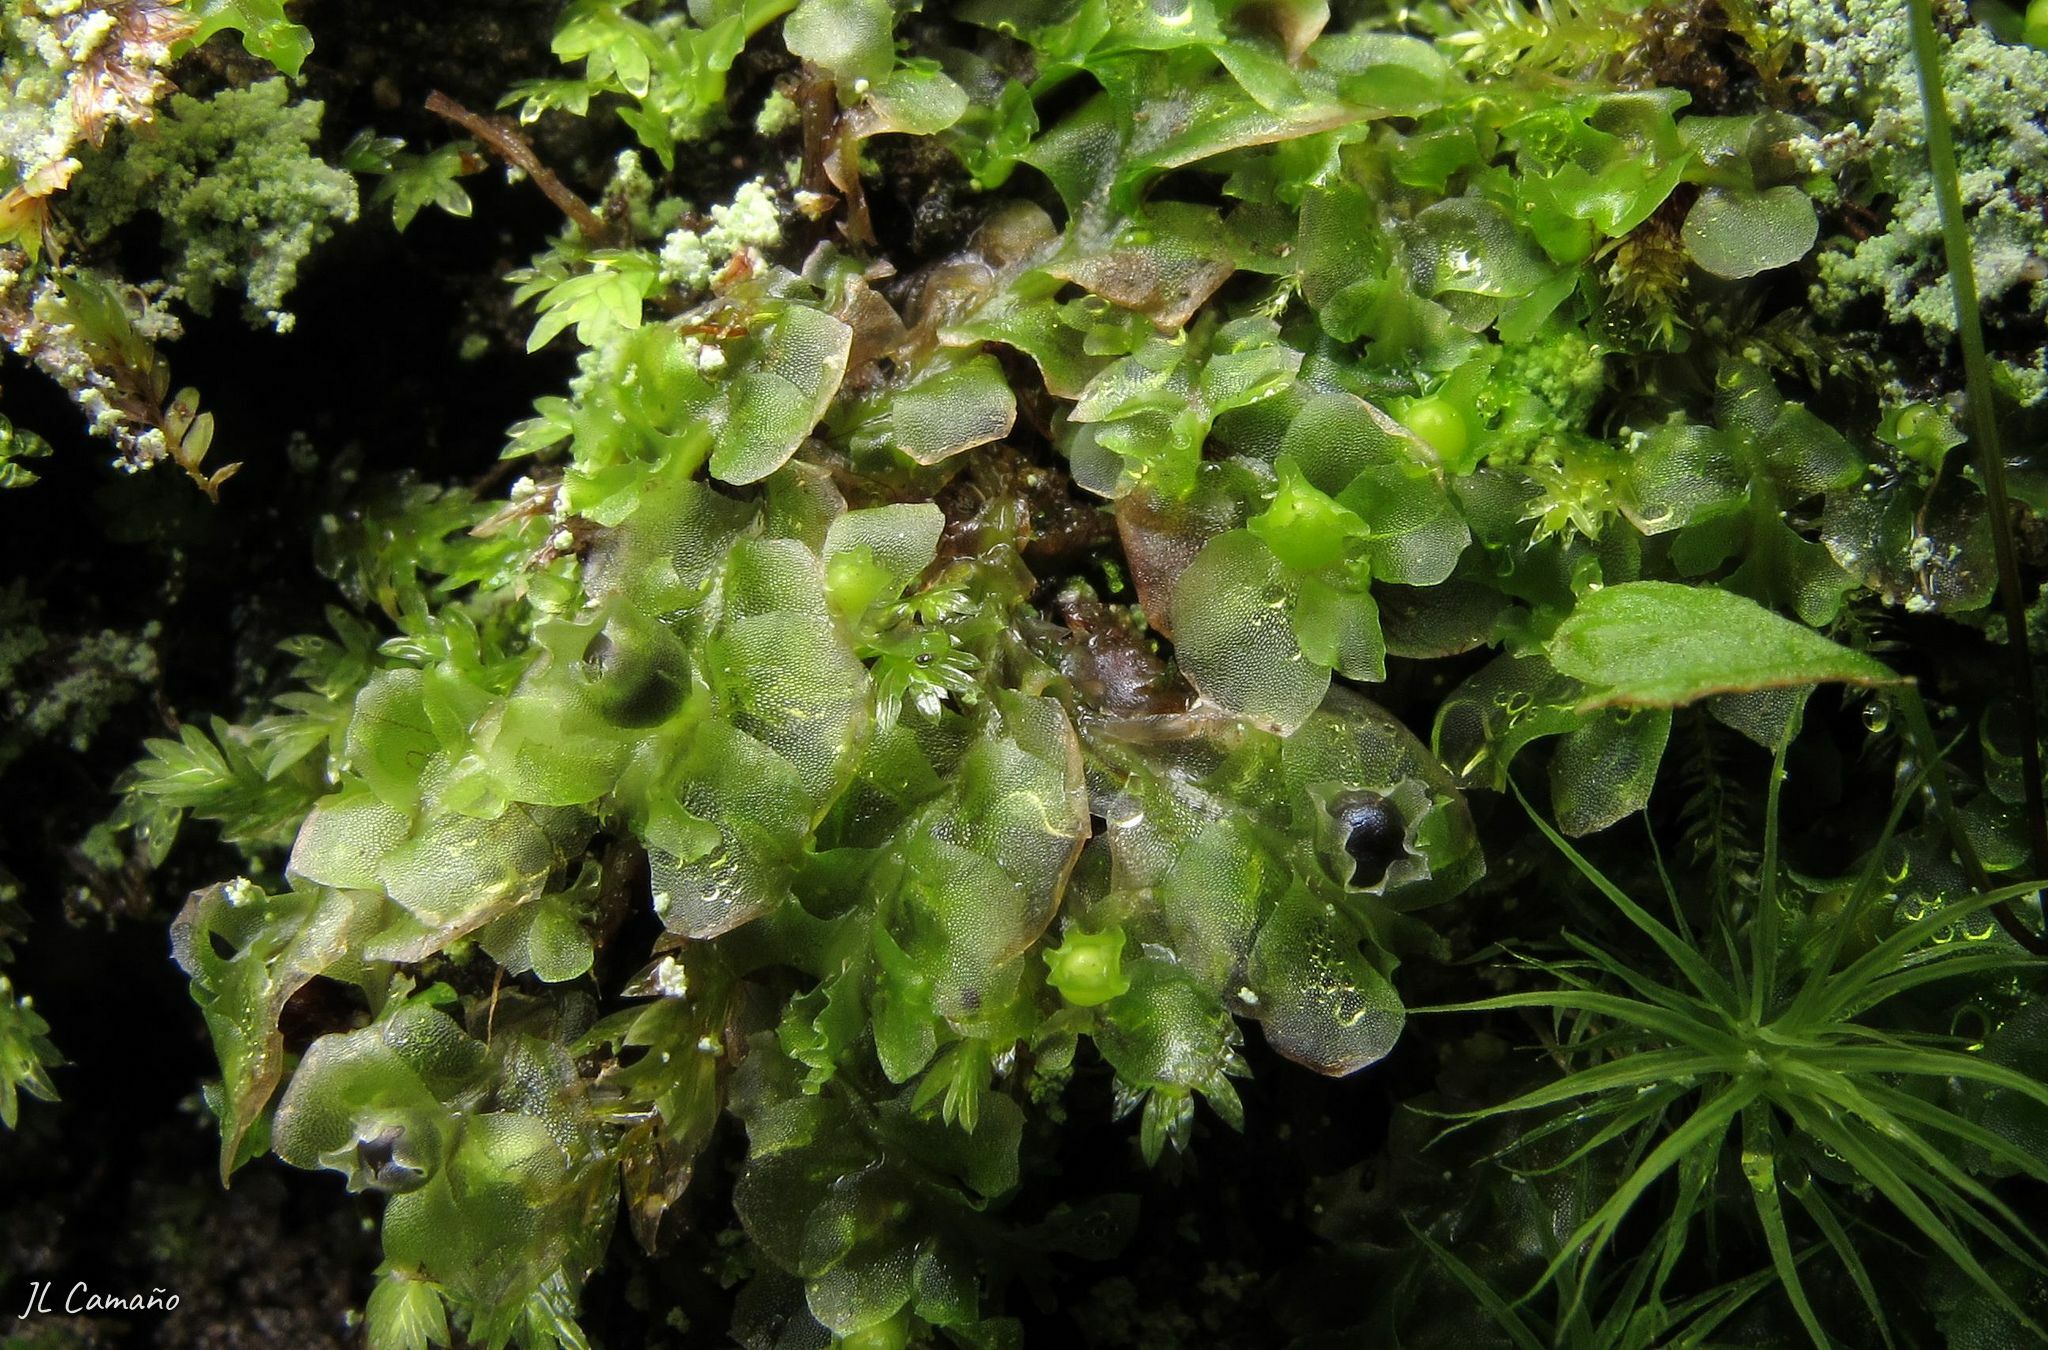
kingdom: Plantae
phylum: Marchantiophyta
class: Jungermanniopsida
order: Fossombroniales
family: Fossombroniaceae
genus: Fossombronia
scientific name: Fossombronia angulosa
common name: Greater frillwort
